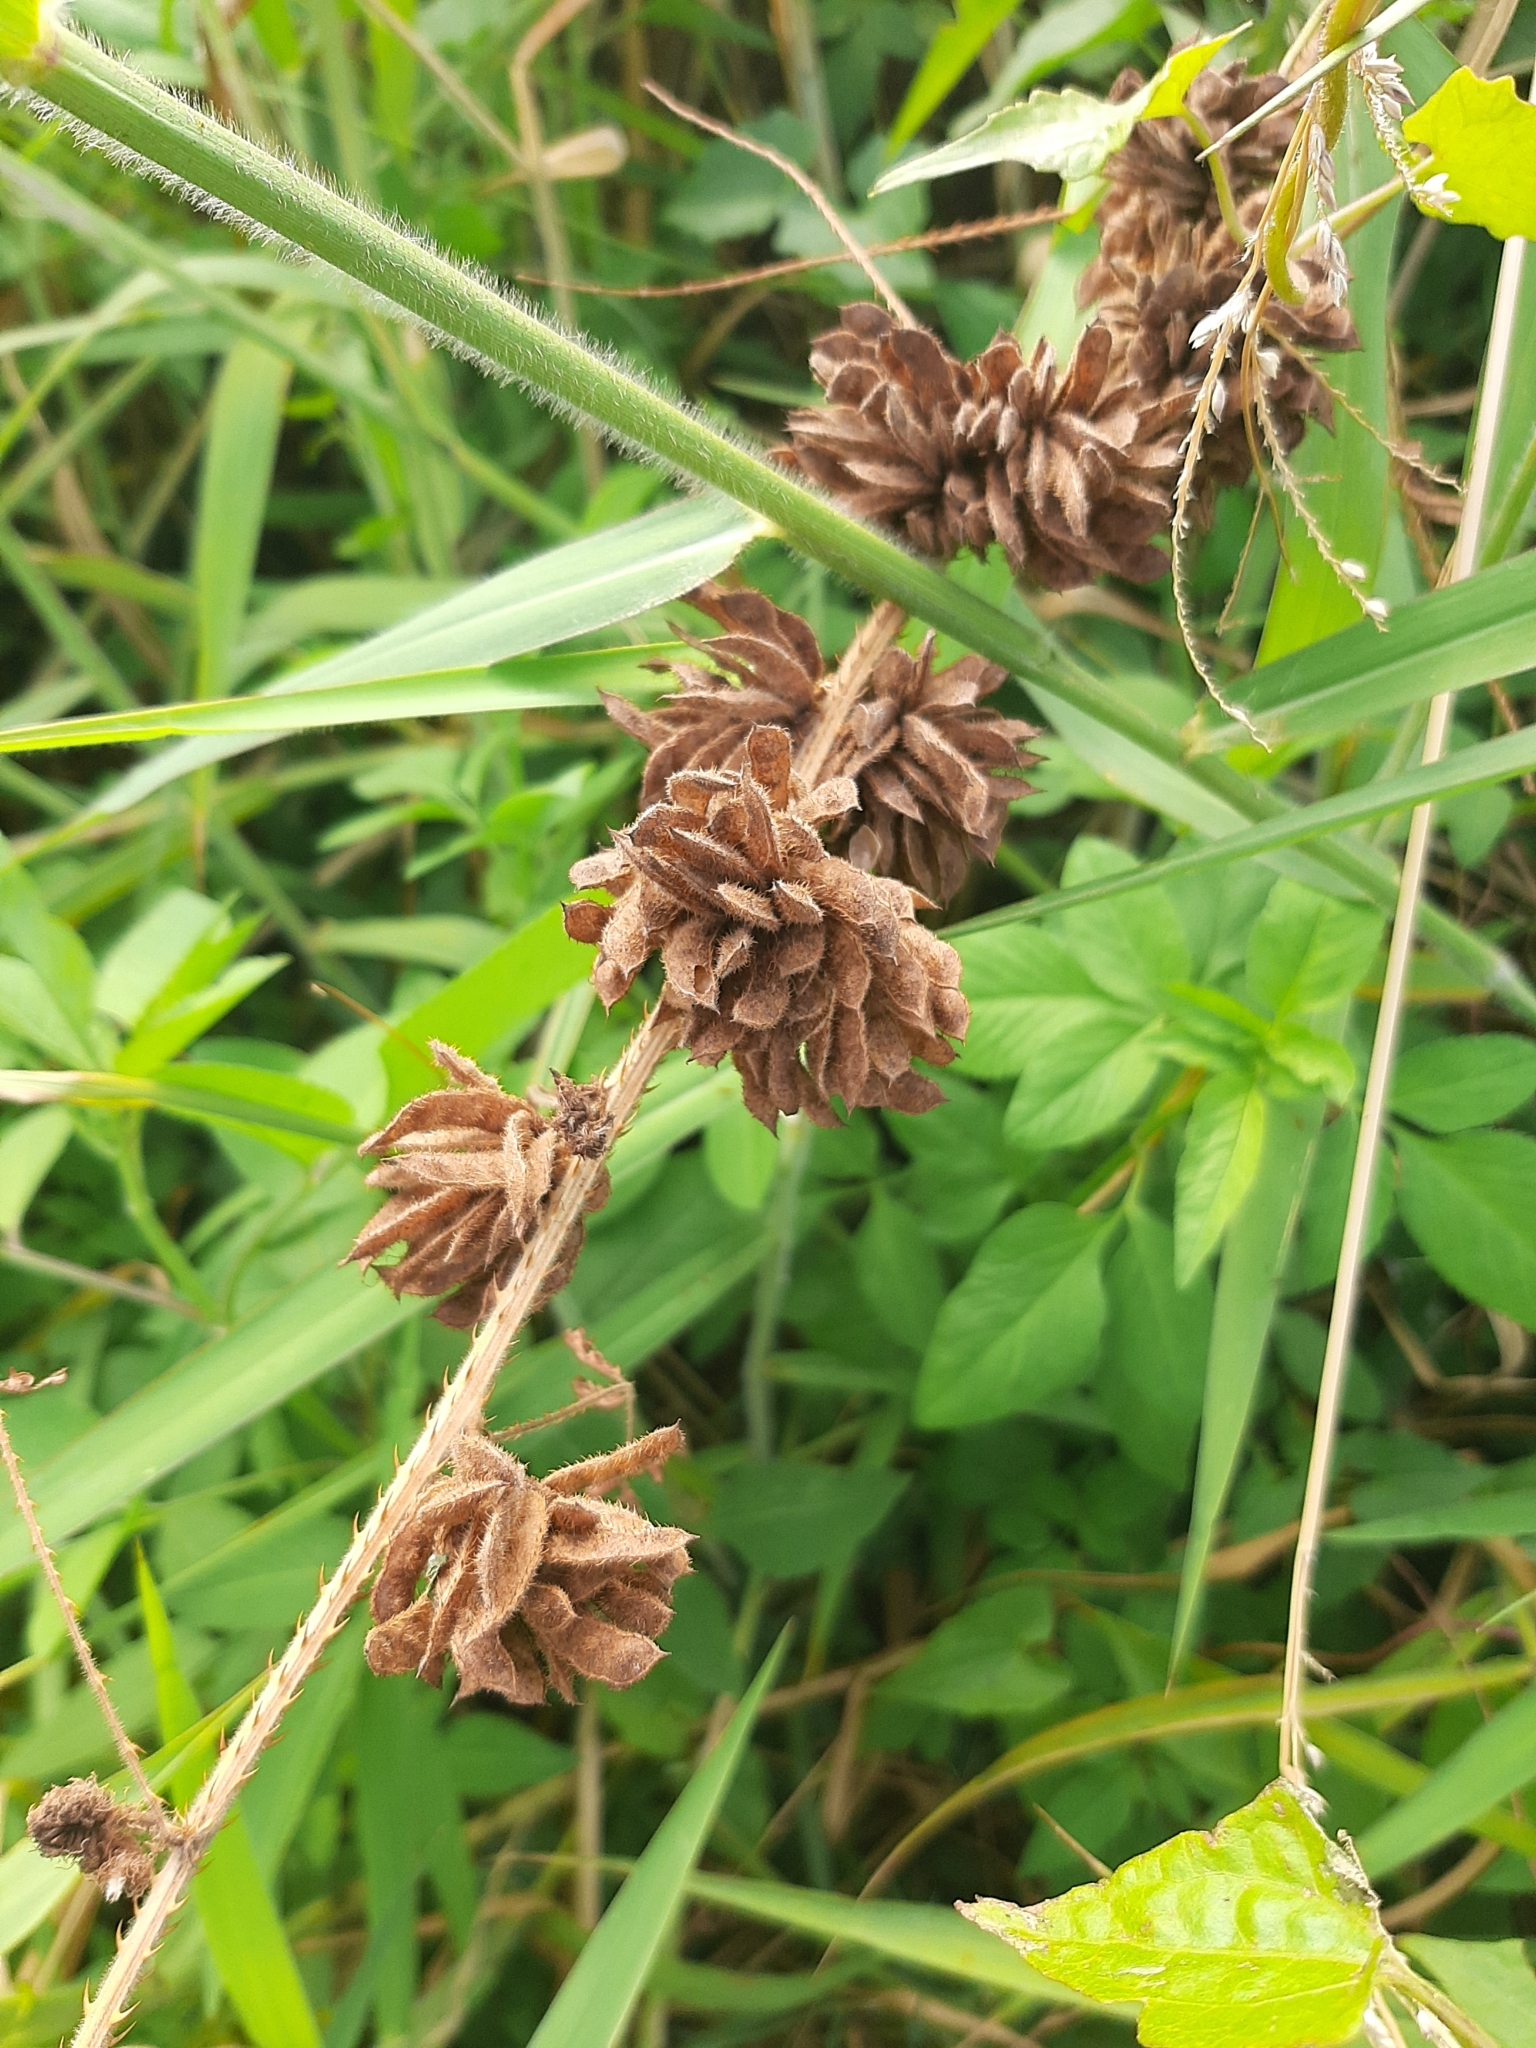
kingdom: Plantae
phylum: Tracheophyta
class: Magnoliopsida
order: Fabales
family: Fabaceae
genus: Mimosa
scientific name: Mimosa diplotricha
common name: Giant sensitive-plant
